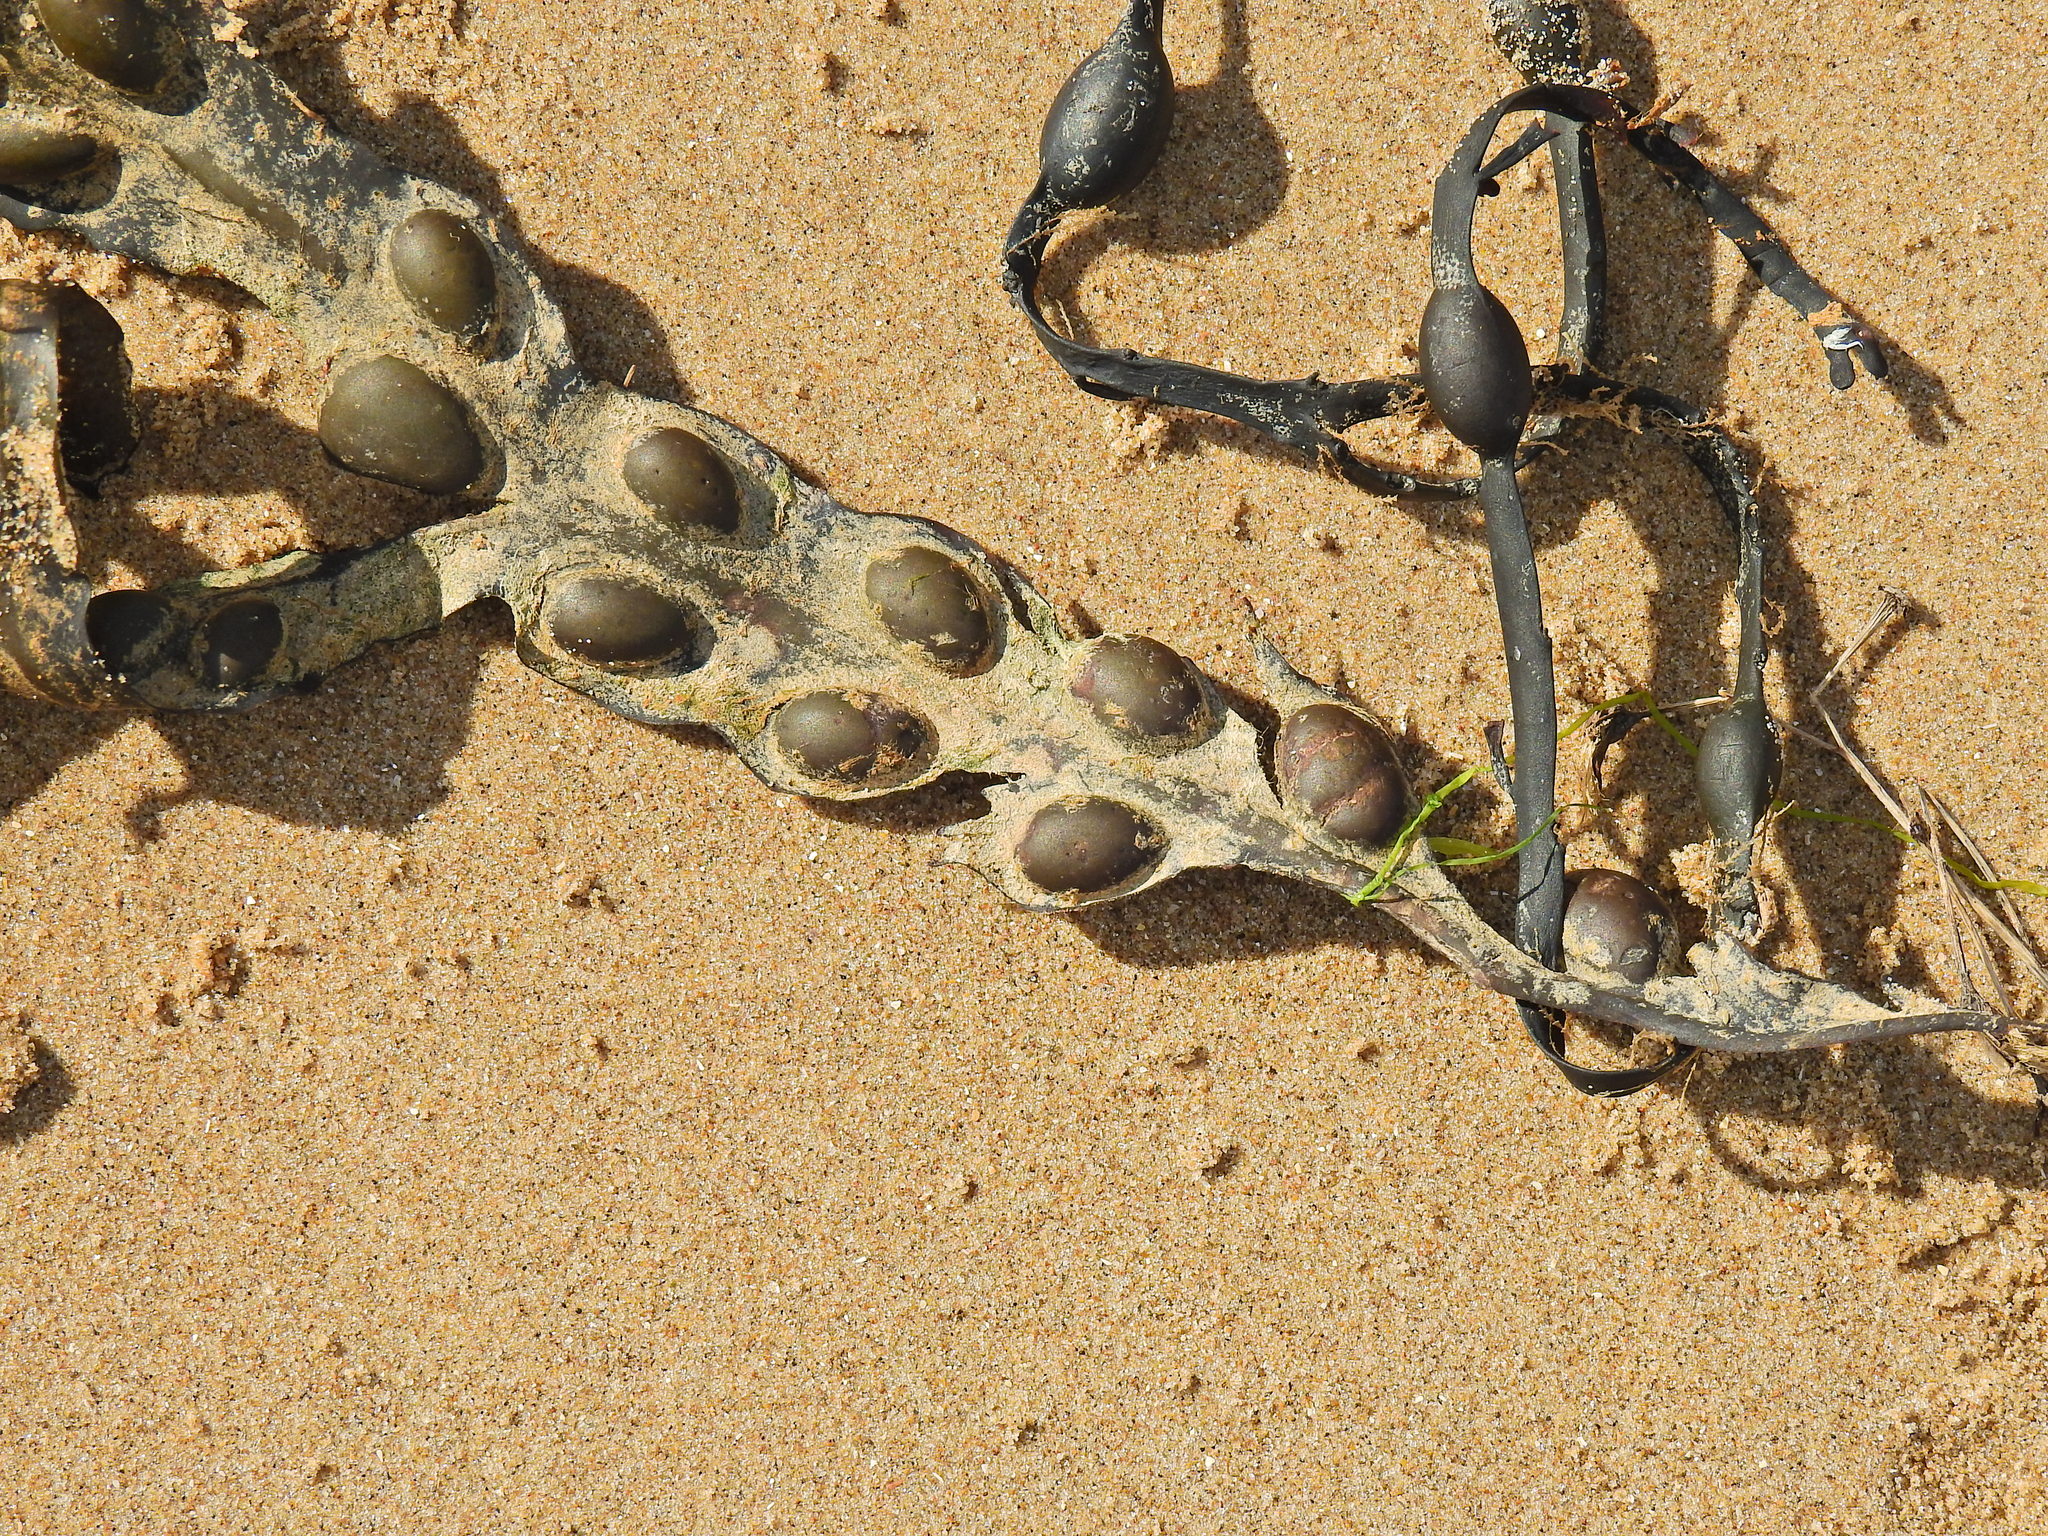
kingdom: Chromista
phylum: Ochrophyta
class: Phaeophyceae
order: Fucales
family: Fucaceae
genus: Fucus
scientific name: Fucus vesiculosus
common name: Bladder wrack
